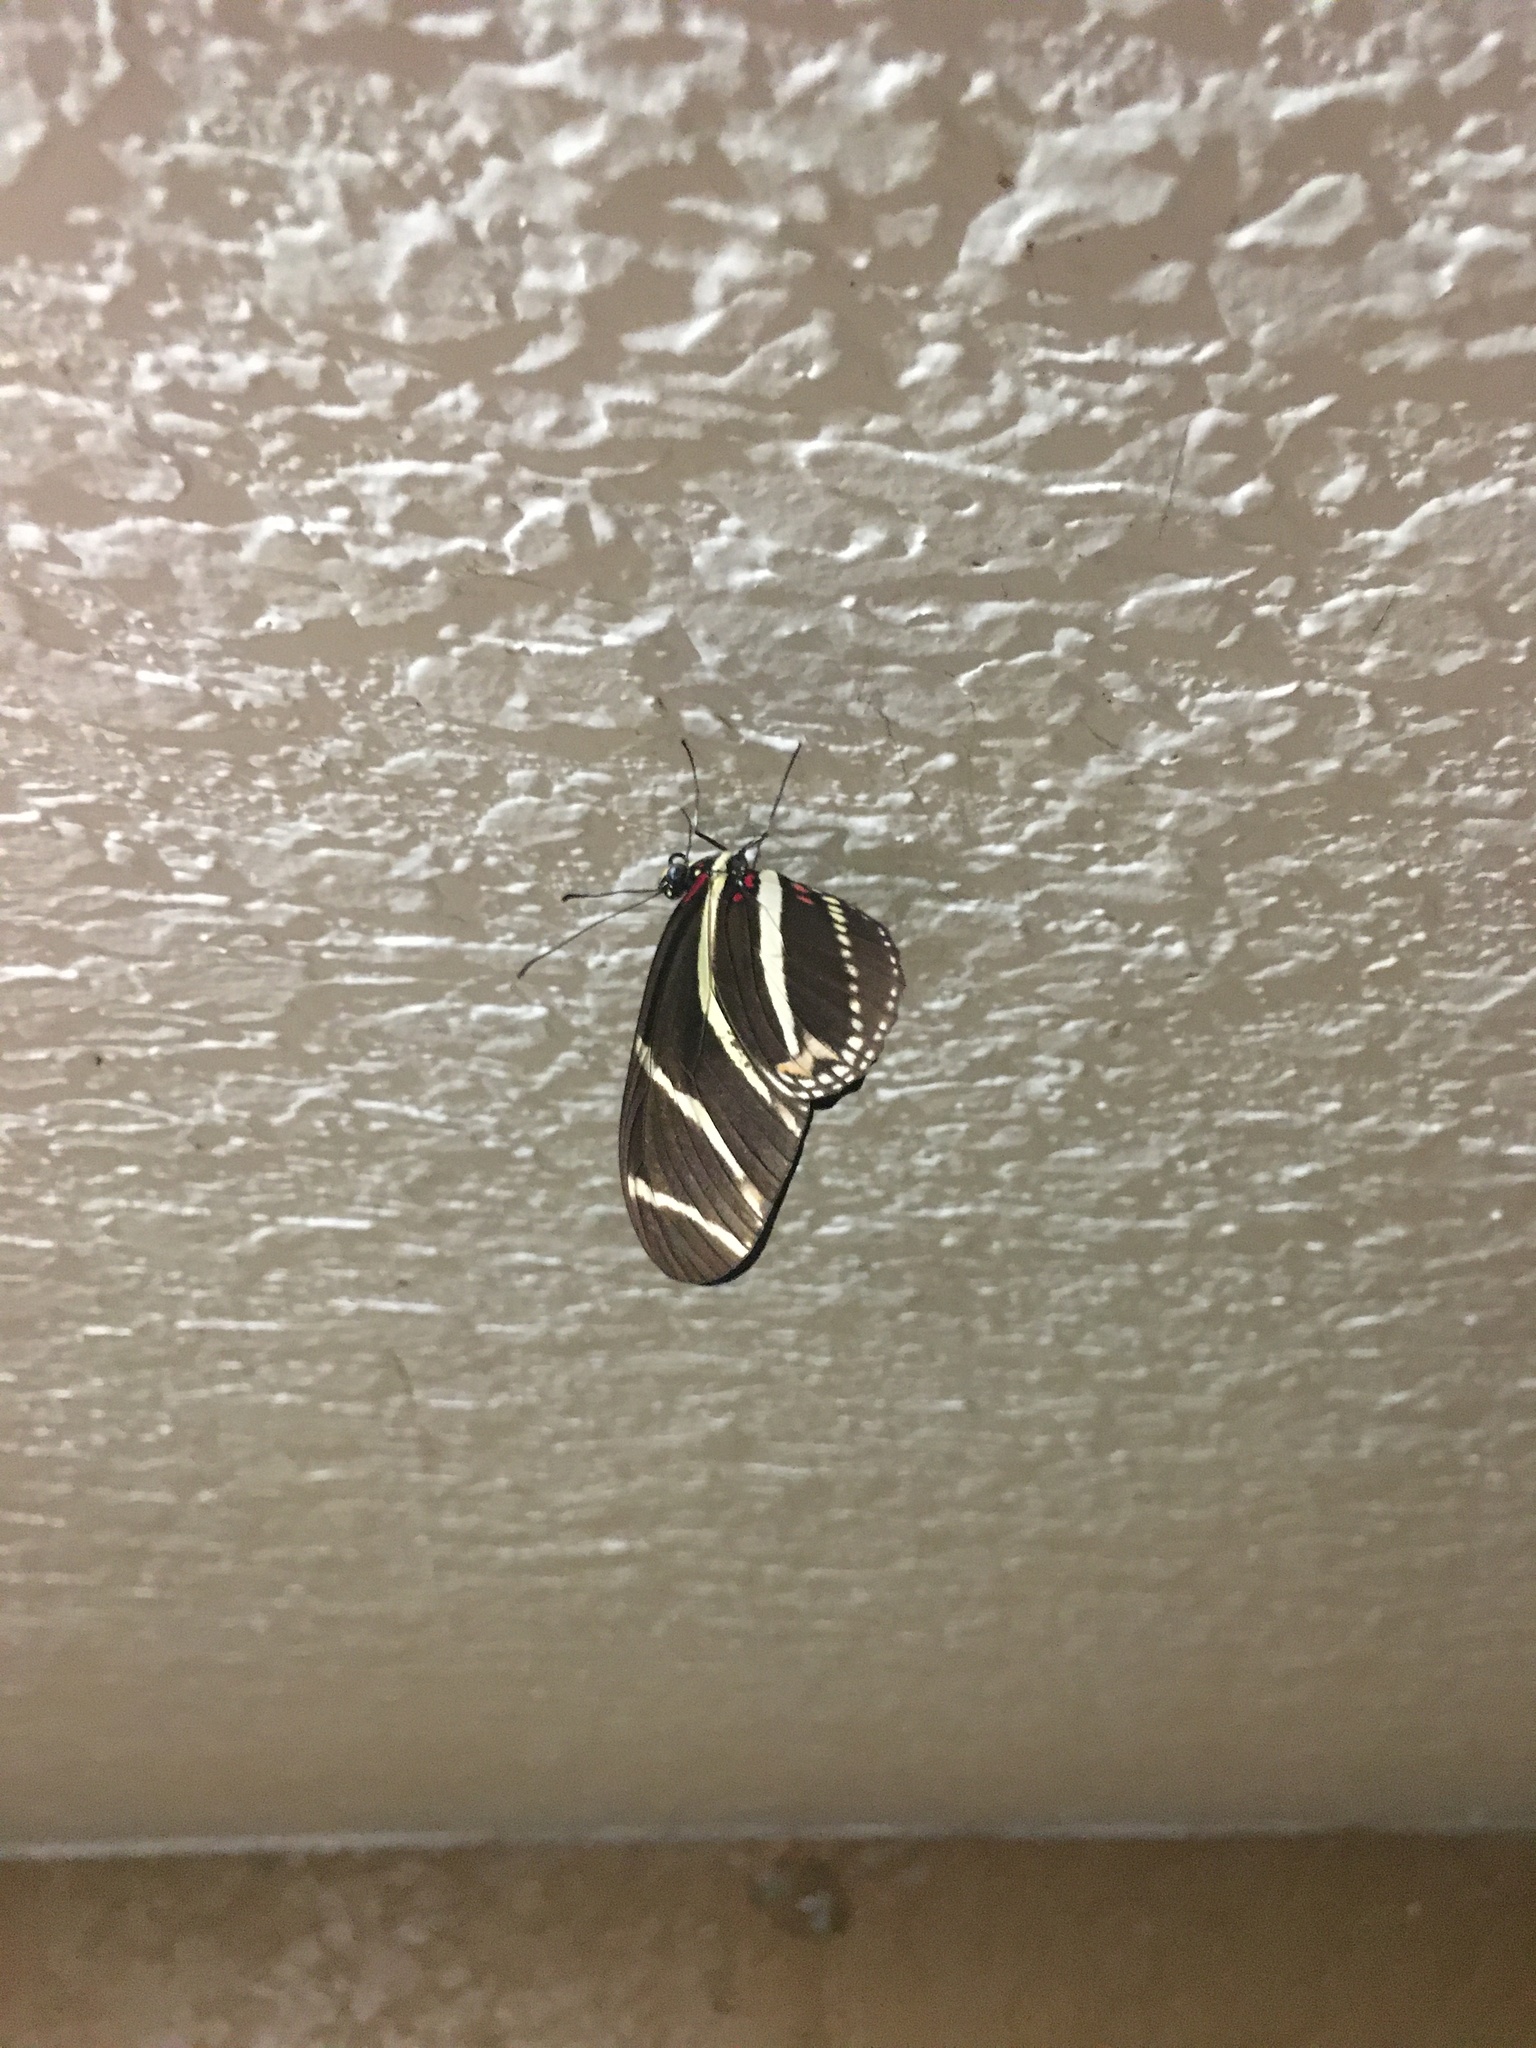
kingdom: Animalia
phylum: Arthropoda
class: Insecta
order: Lepidoptera
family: Nymphalidae
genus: Heliconius
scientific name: Heliconius charithonia
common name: Zebra long wing
